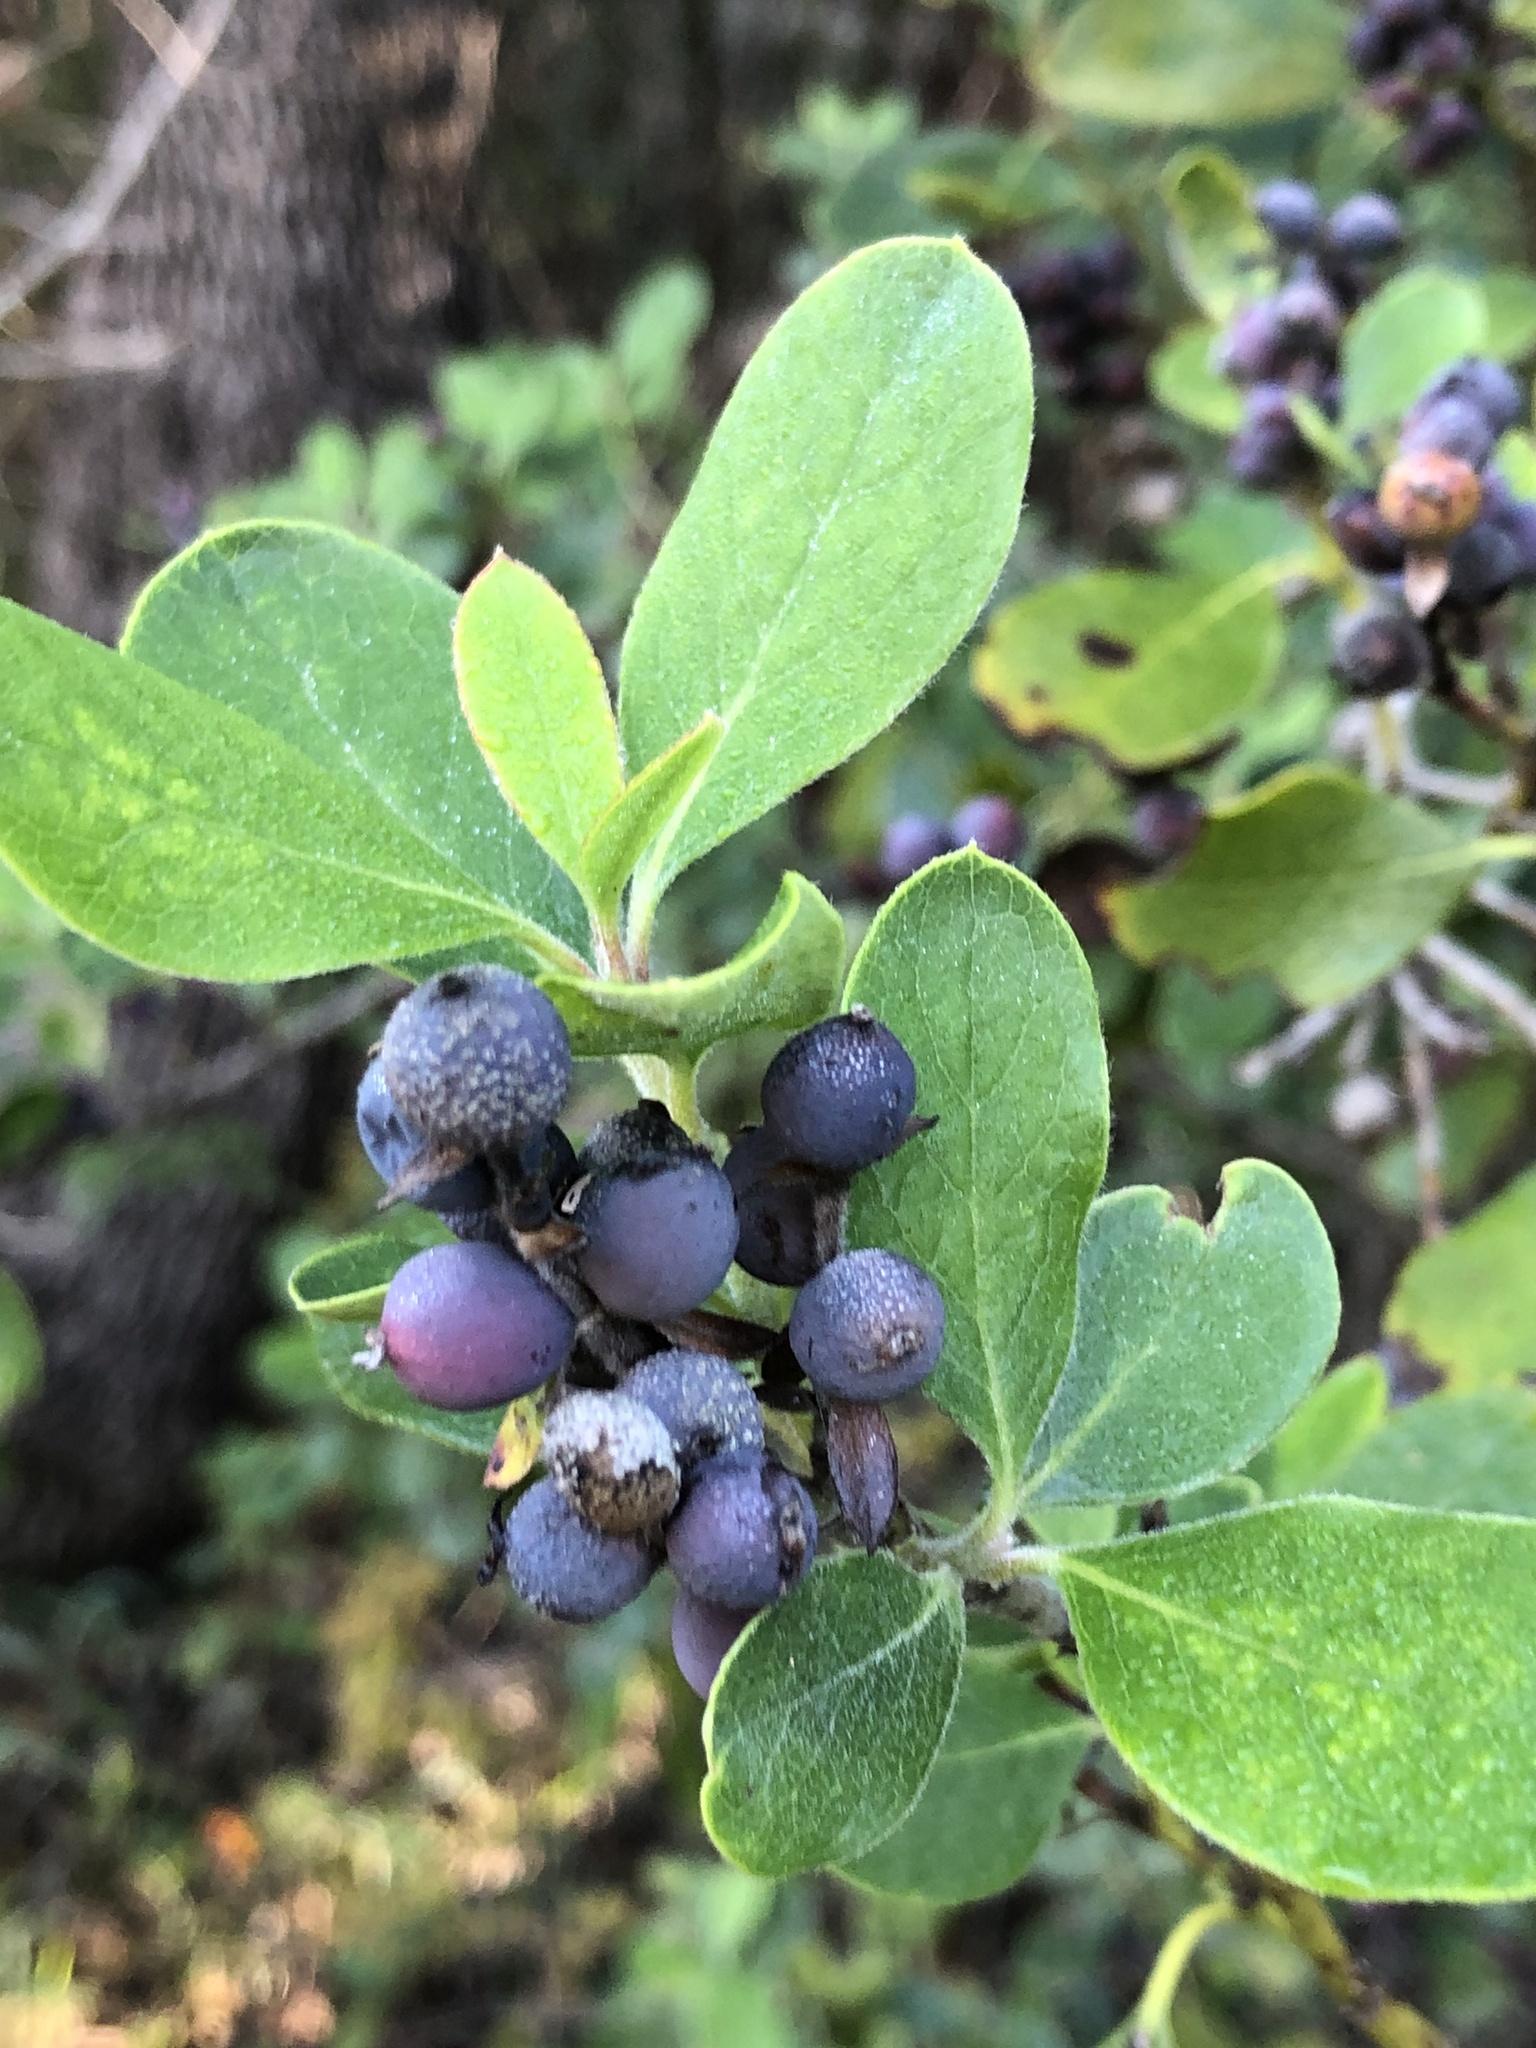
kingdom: Plantae
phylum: Tracheophyta
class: Magnoliopsida
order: Garryales
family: Garryaceae
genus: Garrya
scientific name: Garrya lindheimeri
